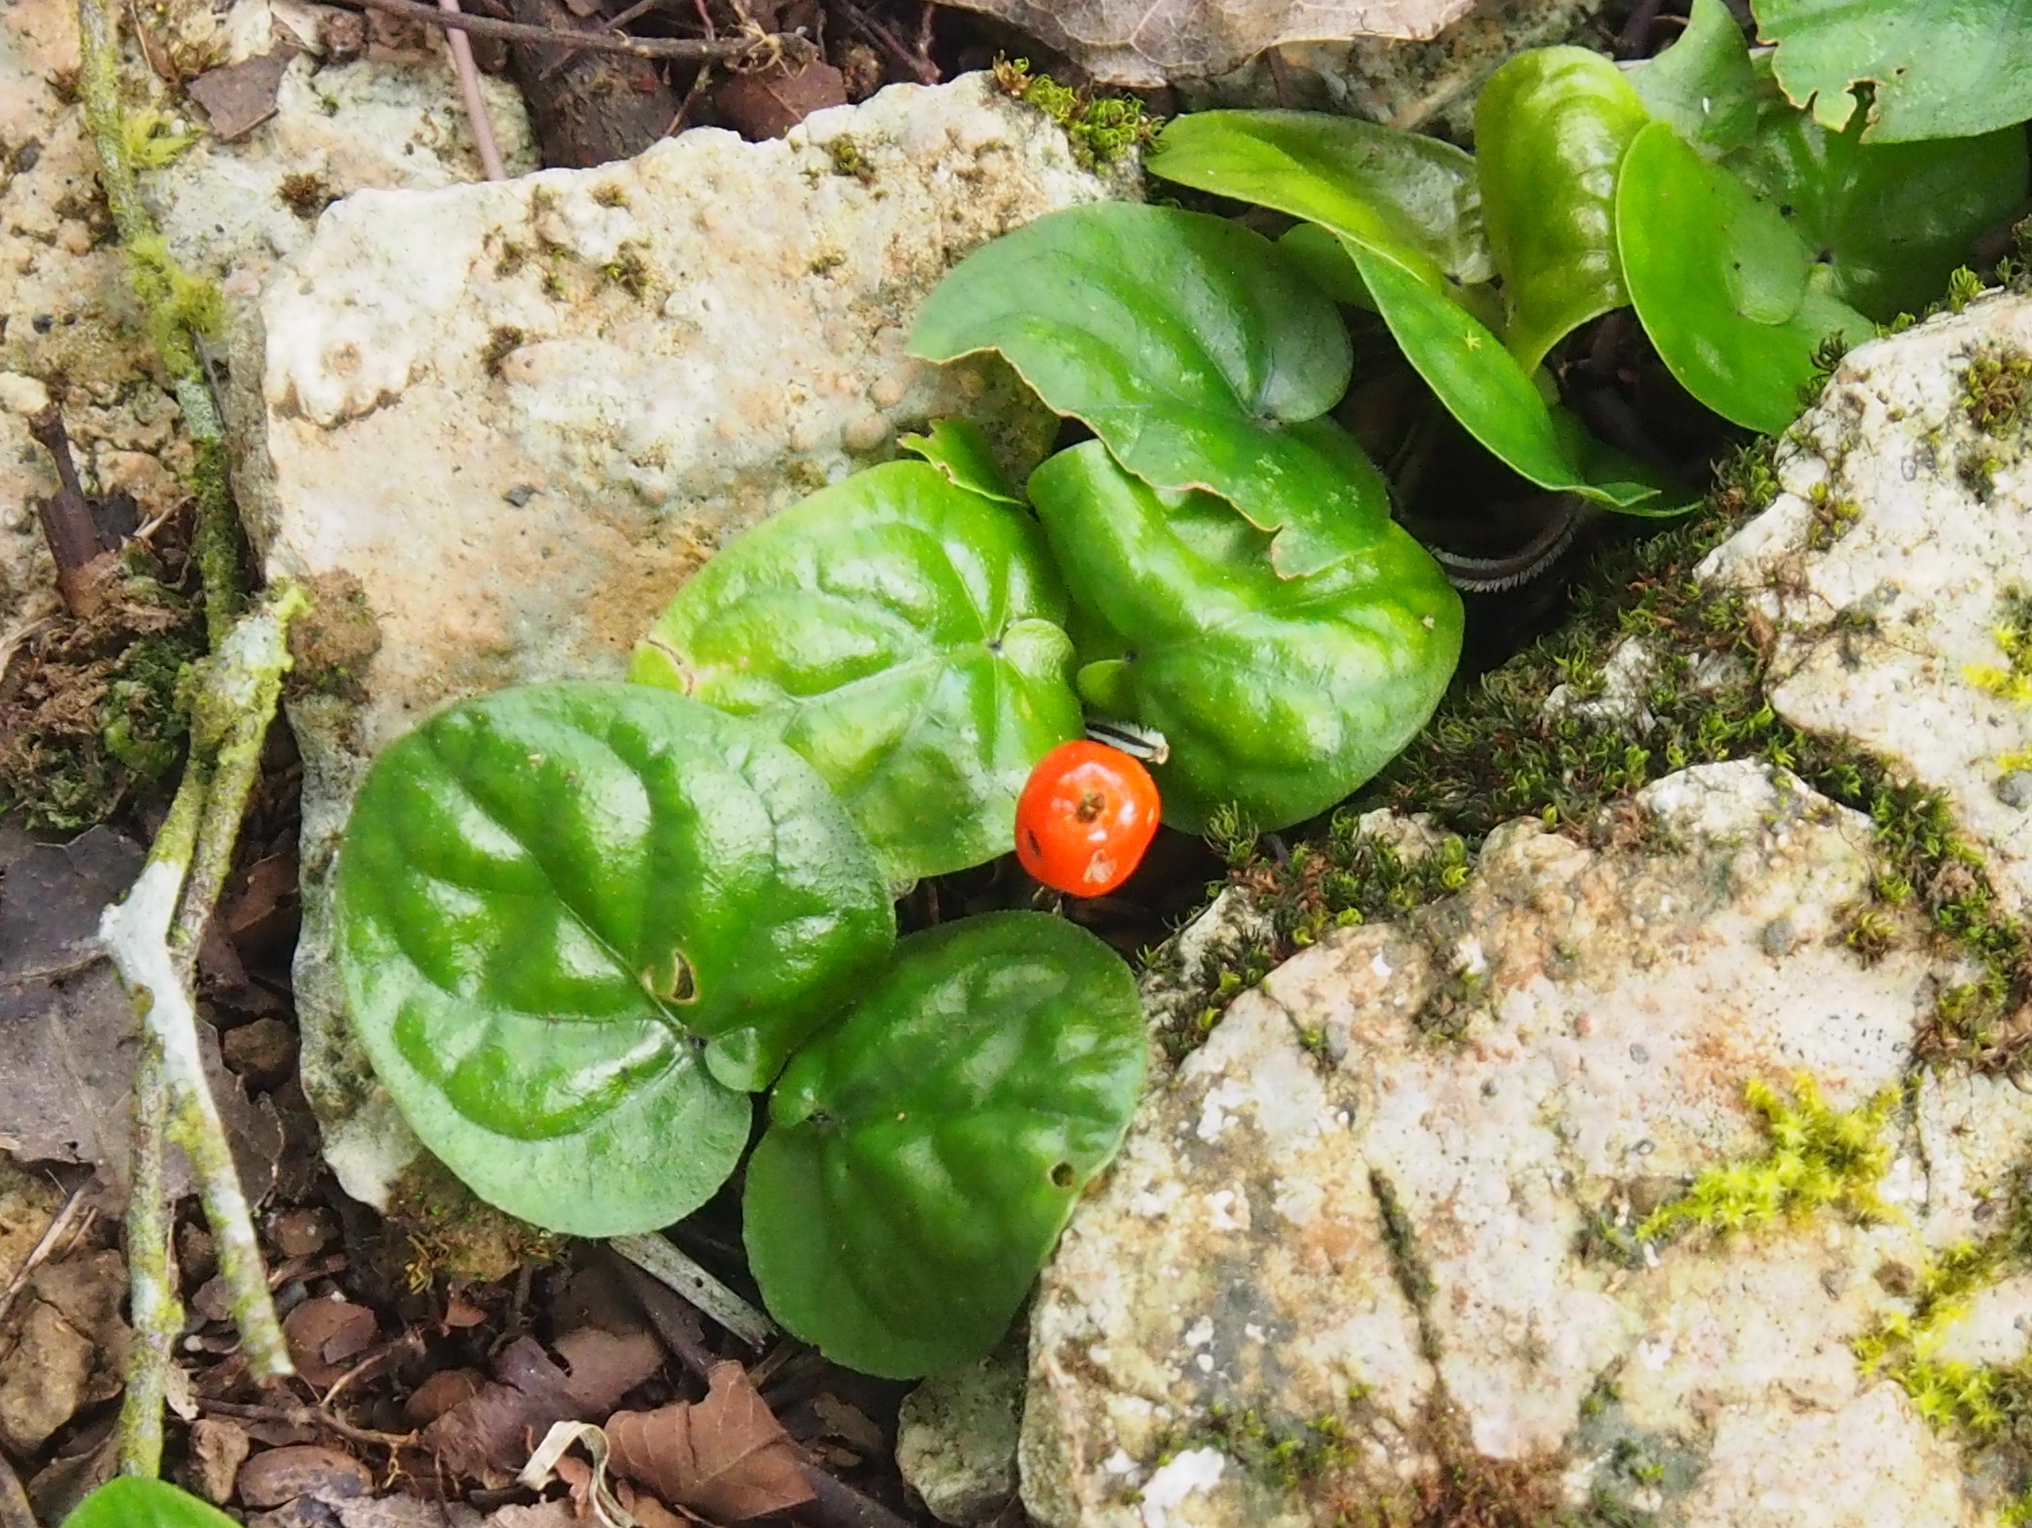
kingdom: Plantae
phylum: Tracheophyta
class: Magnoliopsida
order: Gentianales
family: Rubiaceae
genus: Geophila
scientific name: Geophila repens
